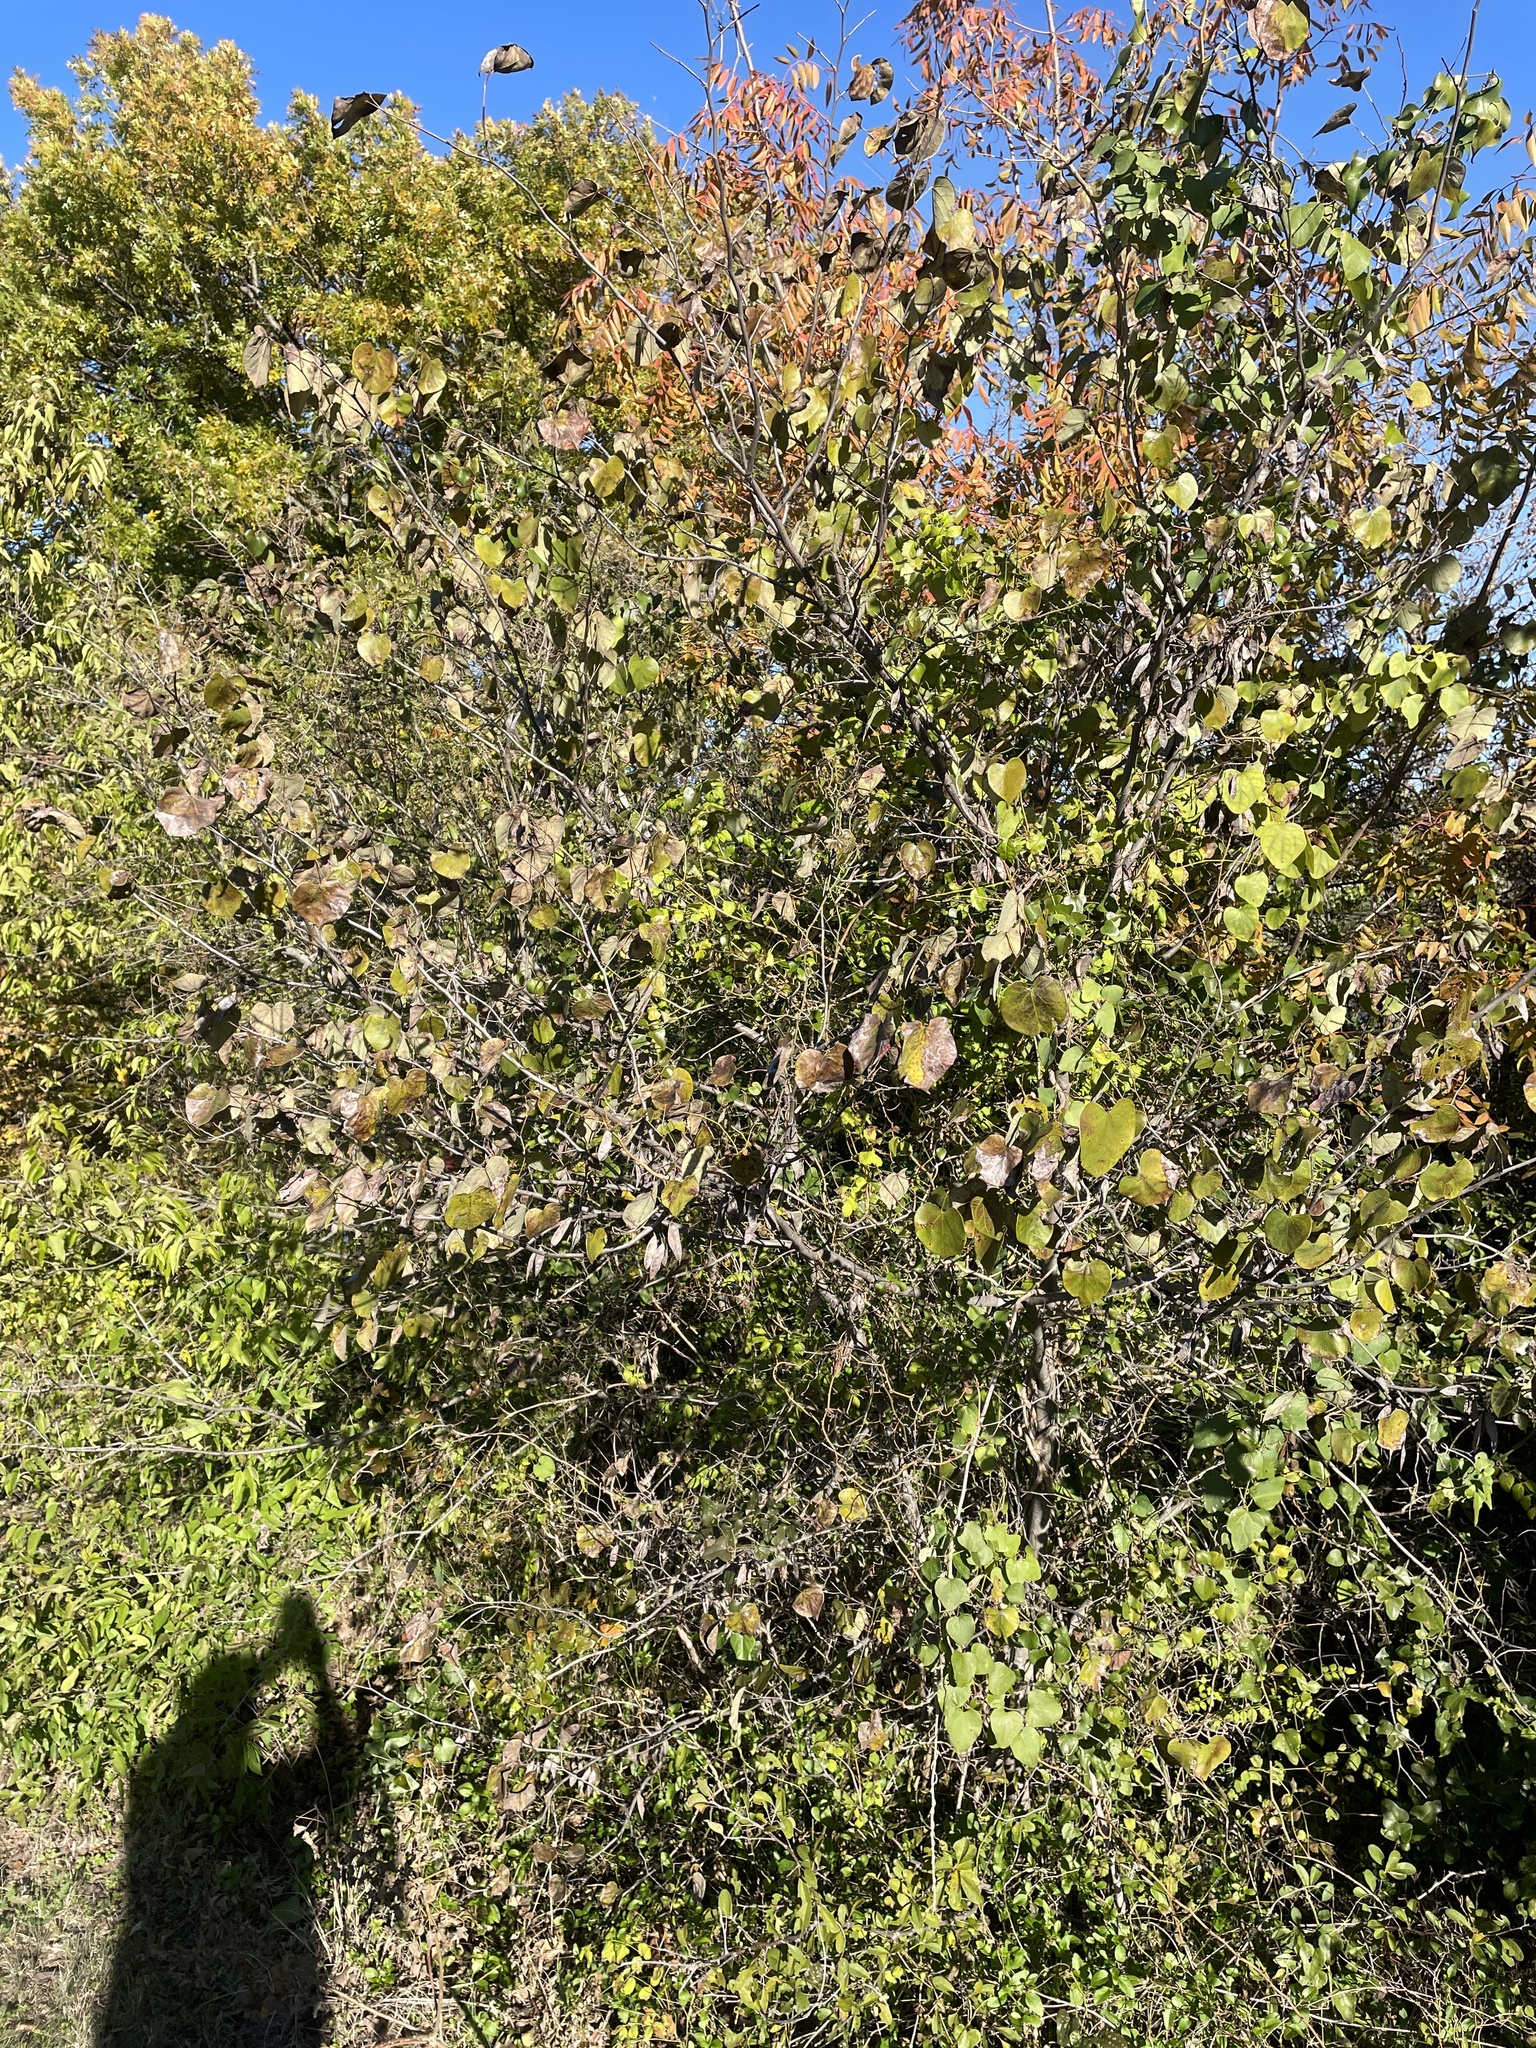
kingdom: Plantae
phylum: Tracheophyta
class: Magnoliopsida
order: Fabales
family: Fabaceae
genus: Cercis
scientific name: Cercis canadensis
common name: Eastern redbud
